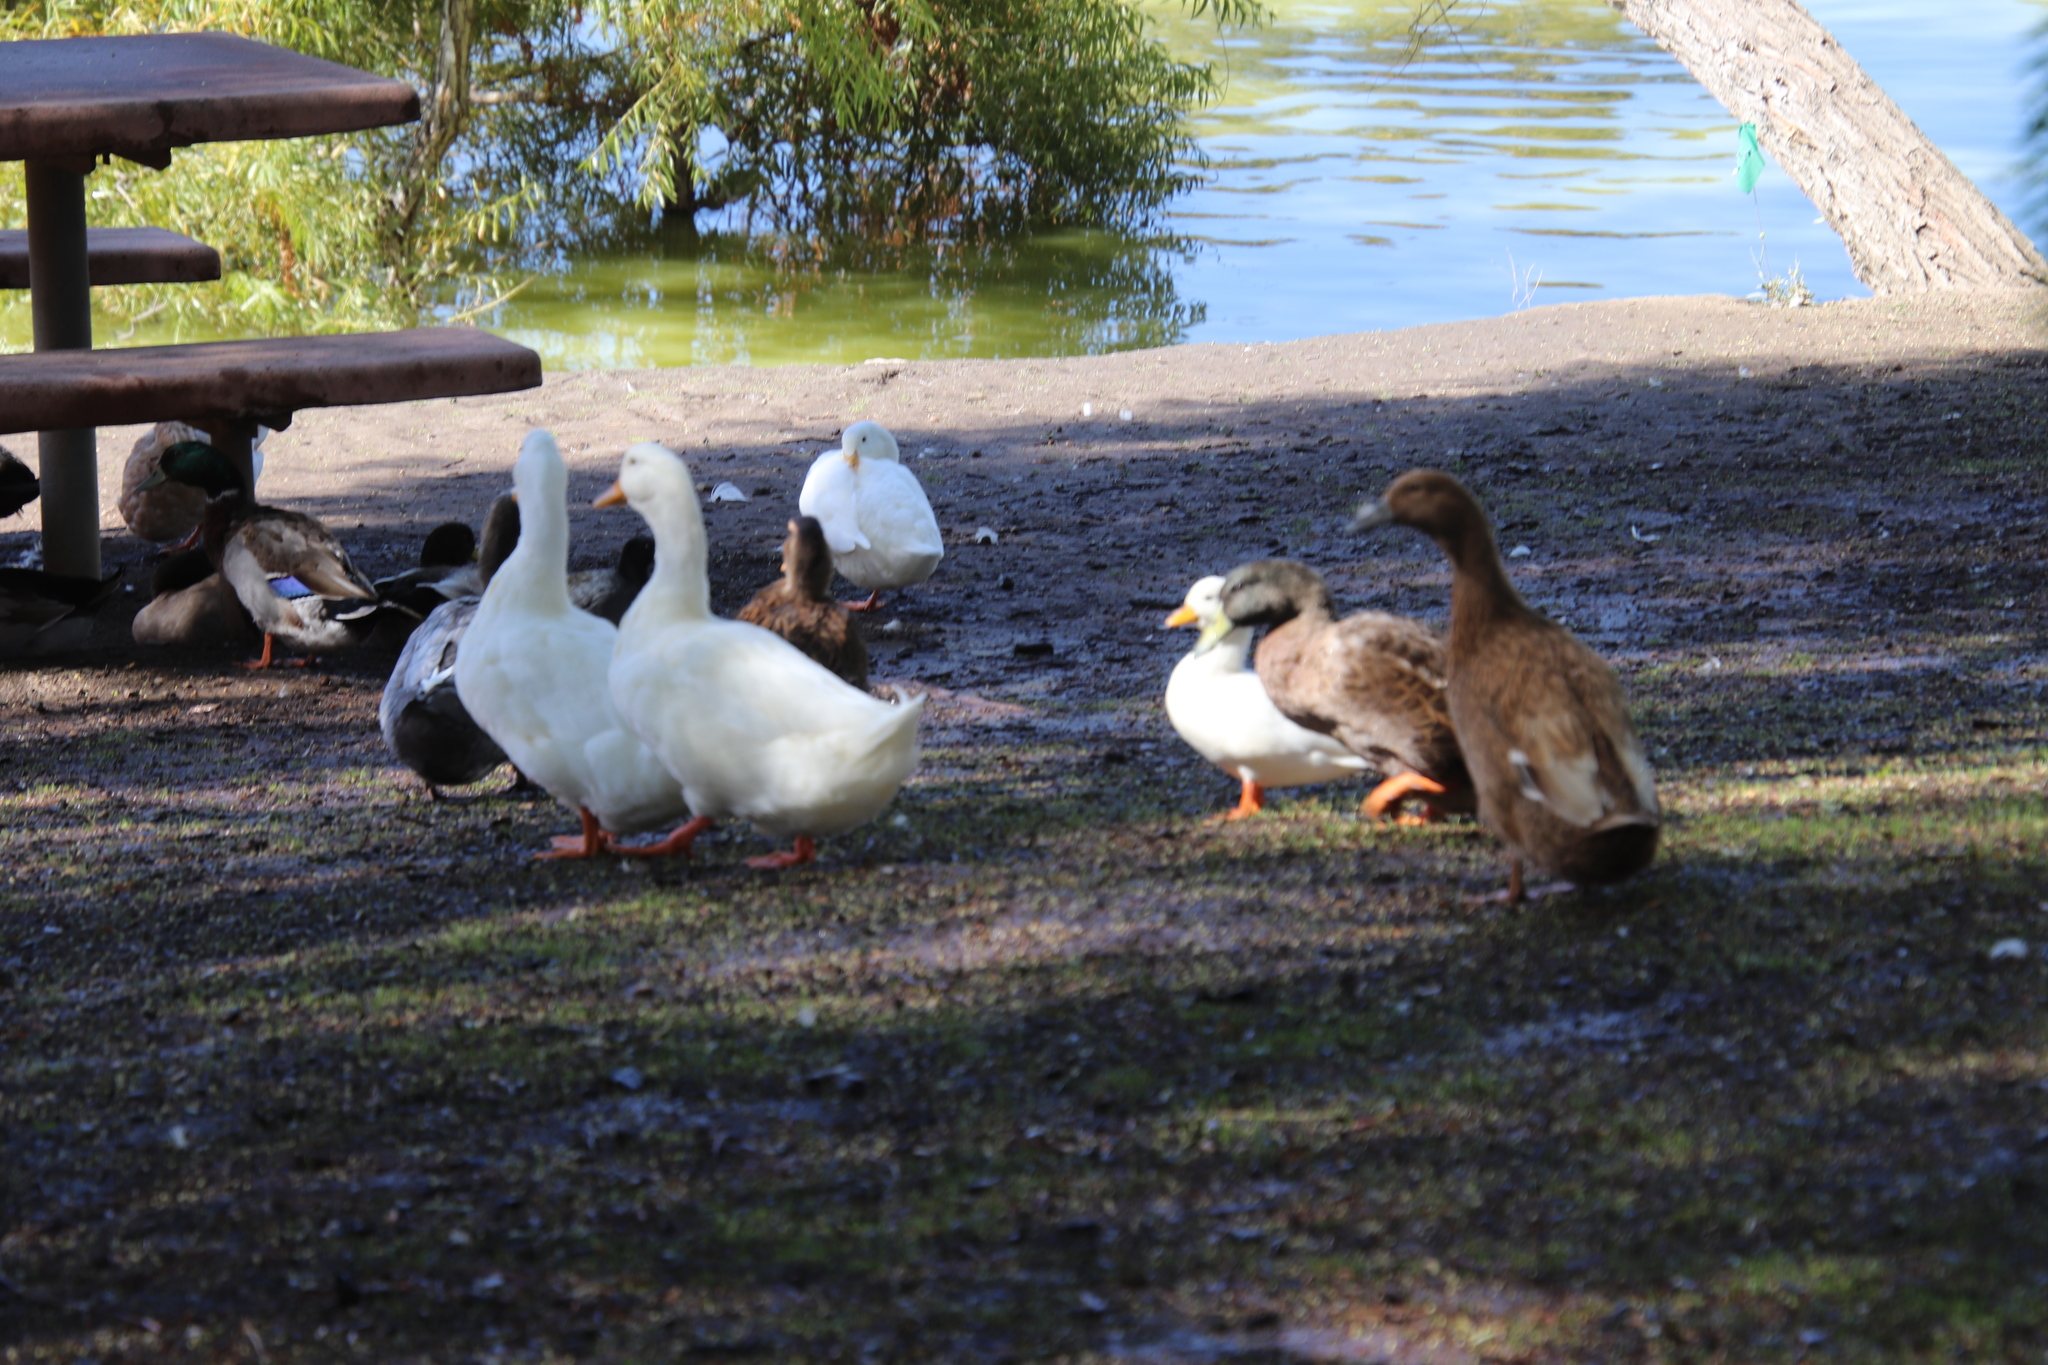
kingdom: Animalia
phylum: Chordata
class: Aves
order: Anseriformes
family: Anatidae
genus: Anas
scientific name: Anas platyrhynchos
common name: Mallard
